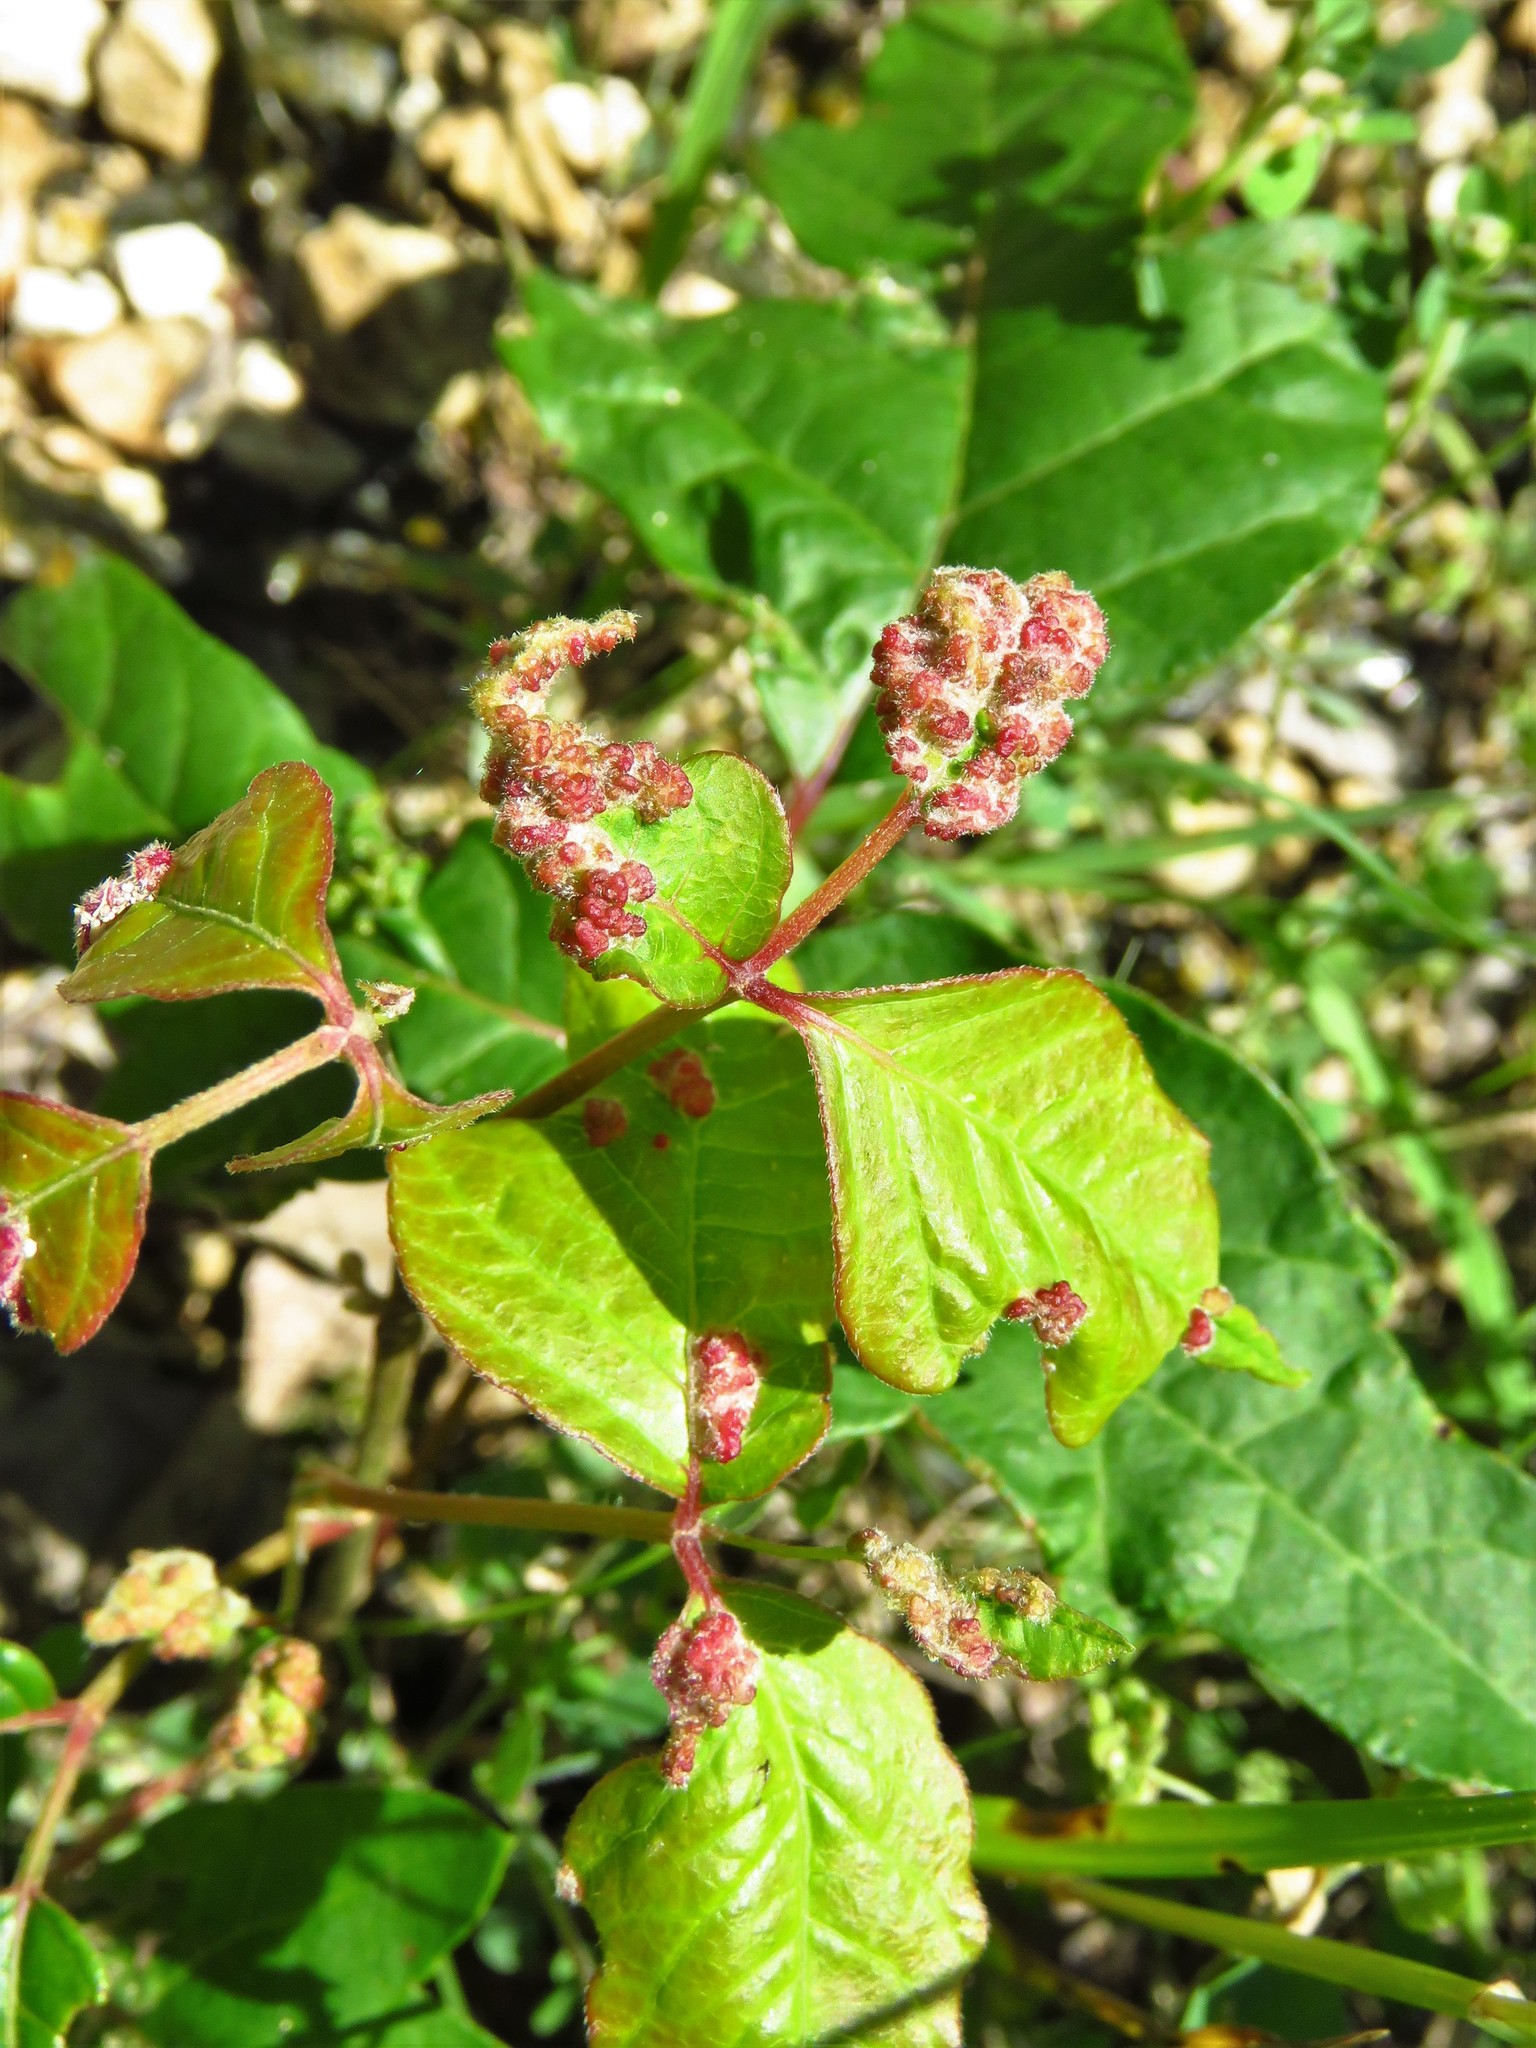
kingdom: Animalia
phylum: Arthropoda
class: Arachnida
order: Trombidiformes
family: Eriophyidae
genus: Aculops
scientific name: Aculops
